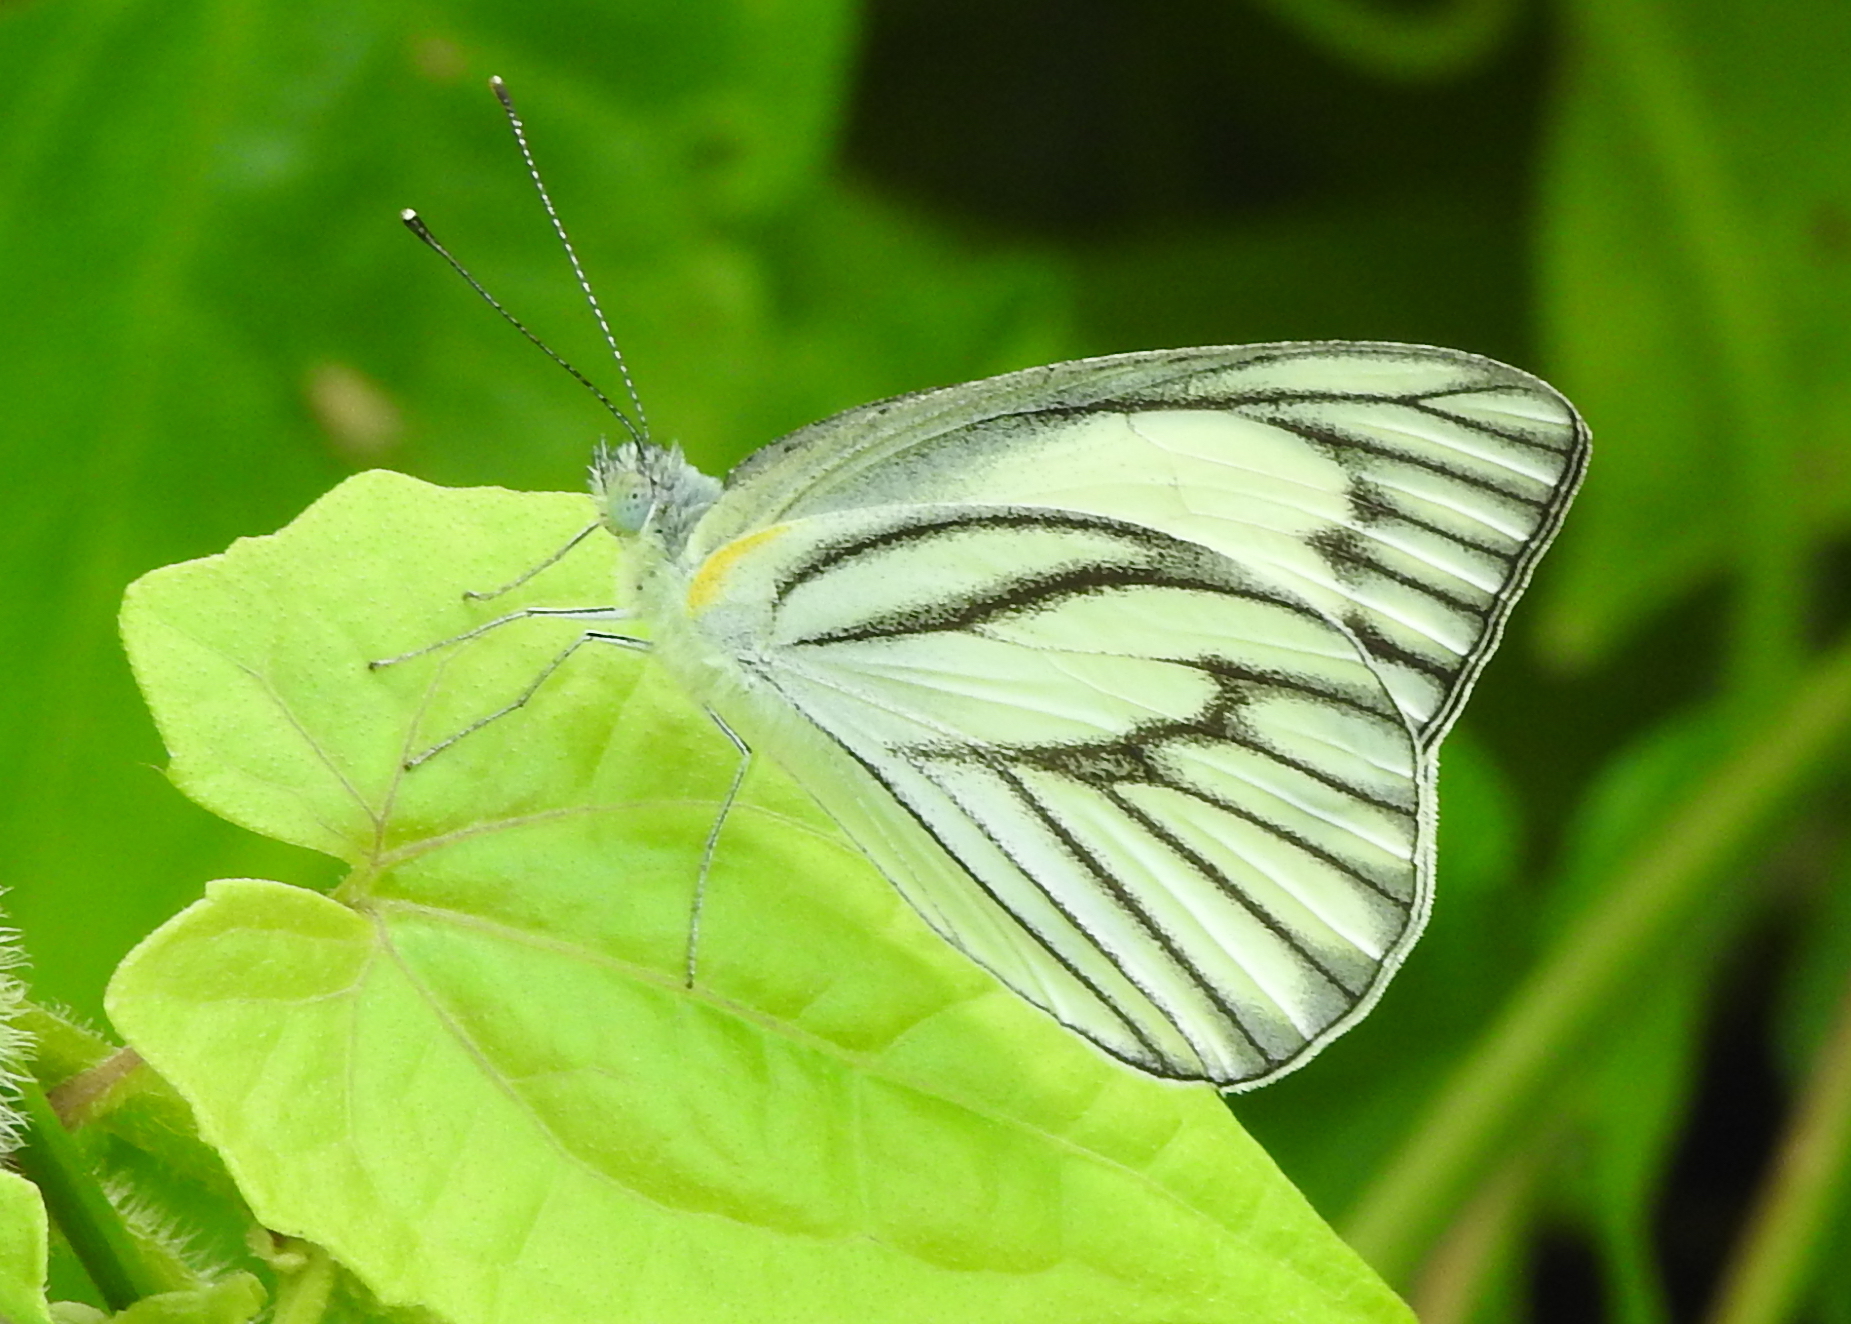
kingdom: Animalia
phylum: Arthropoda
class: Insecta
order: Lepidoptera
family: Pieridae
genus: Appias
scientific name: Appias libythea
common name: Striped albatross
